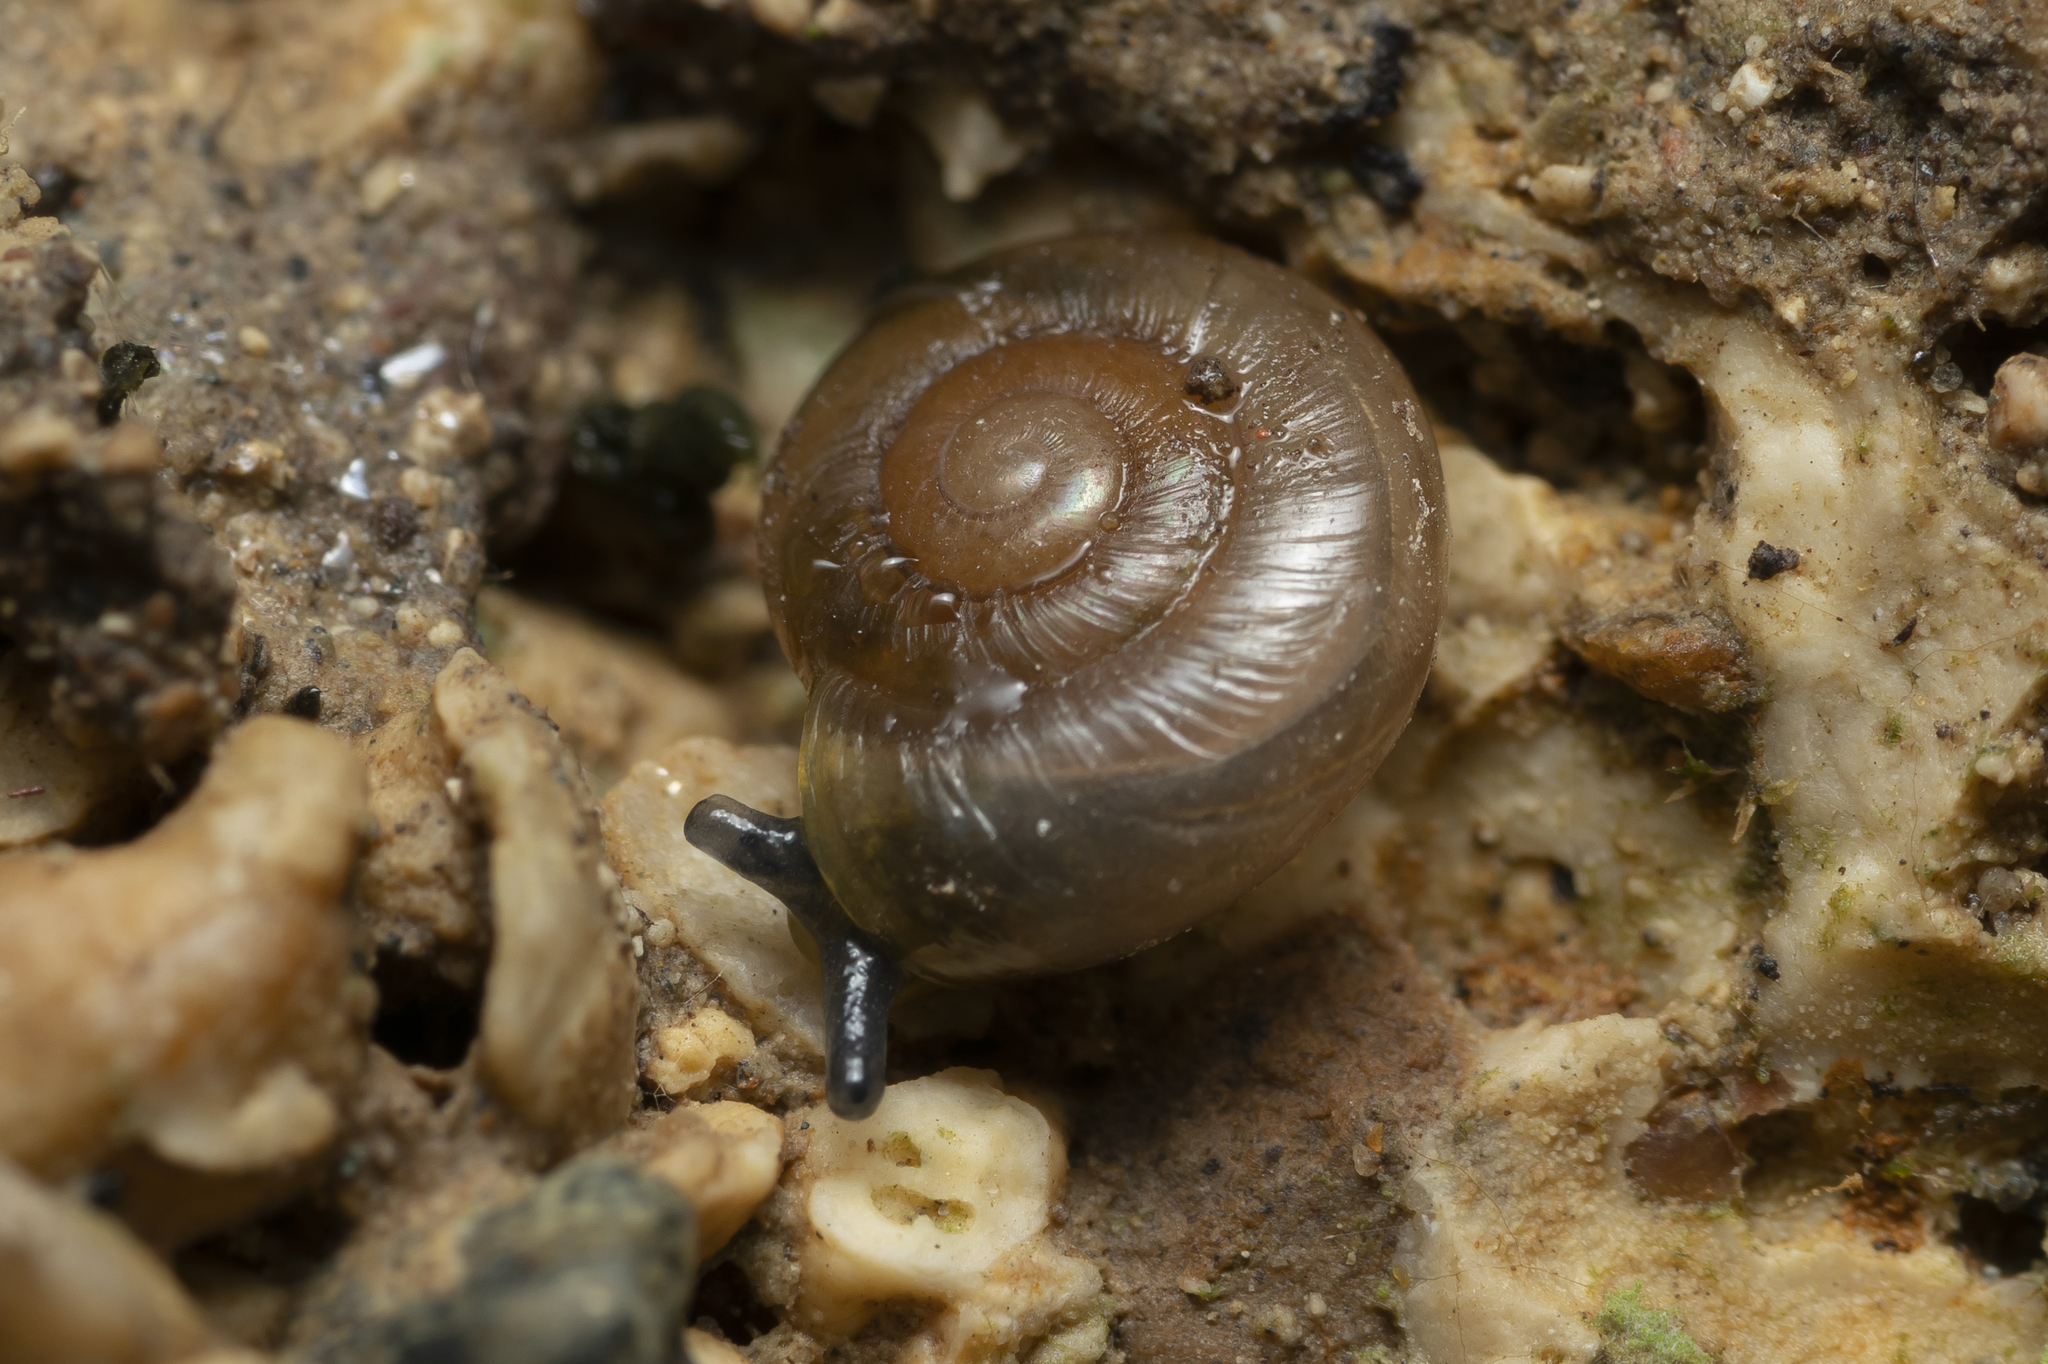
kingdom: Animalia
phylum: Mollusca
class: Gastropoda
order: Stylommatophora
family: Oxychilidae
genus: Oxychilus
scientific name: Oxychilus cyprius
